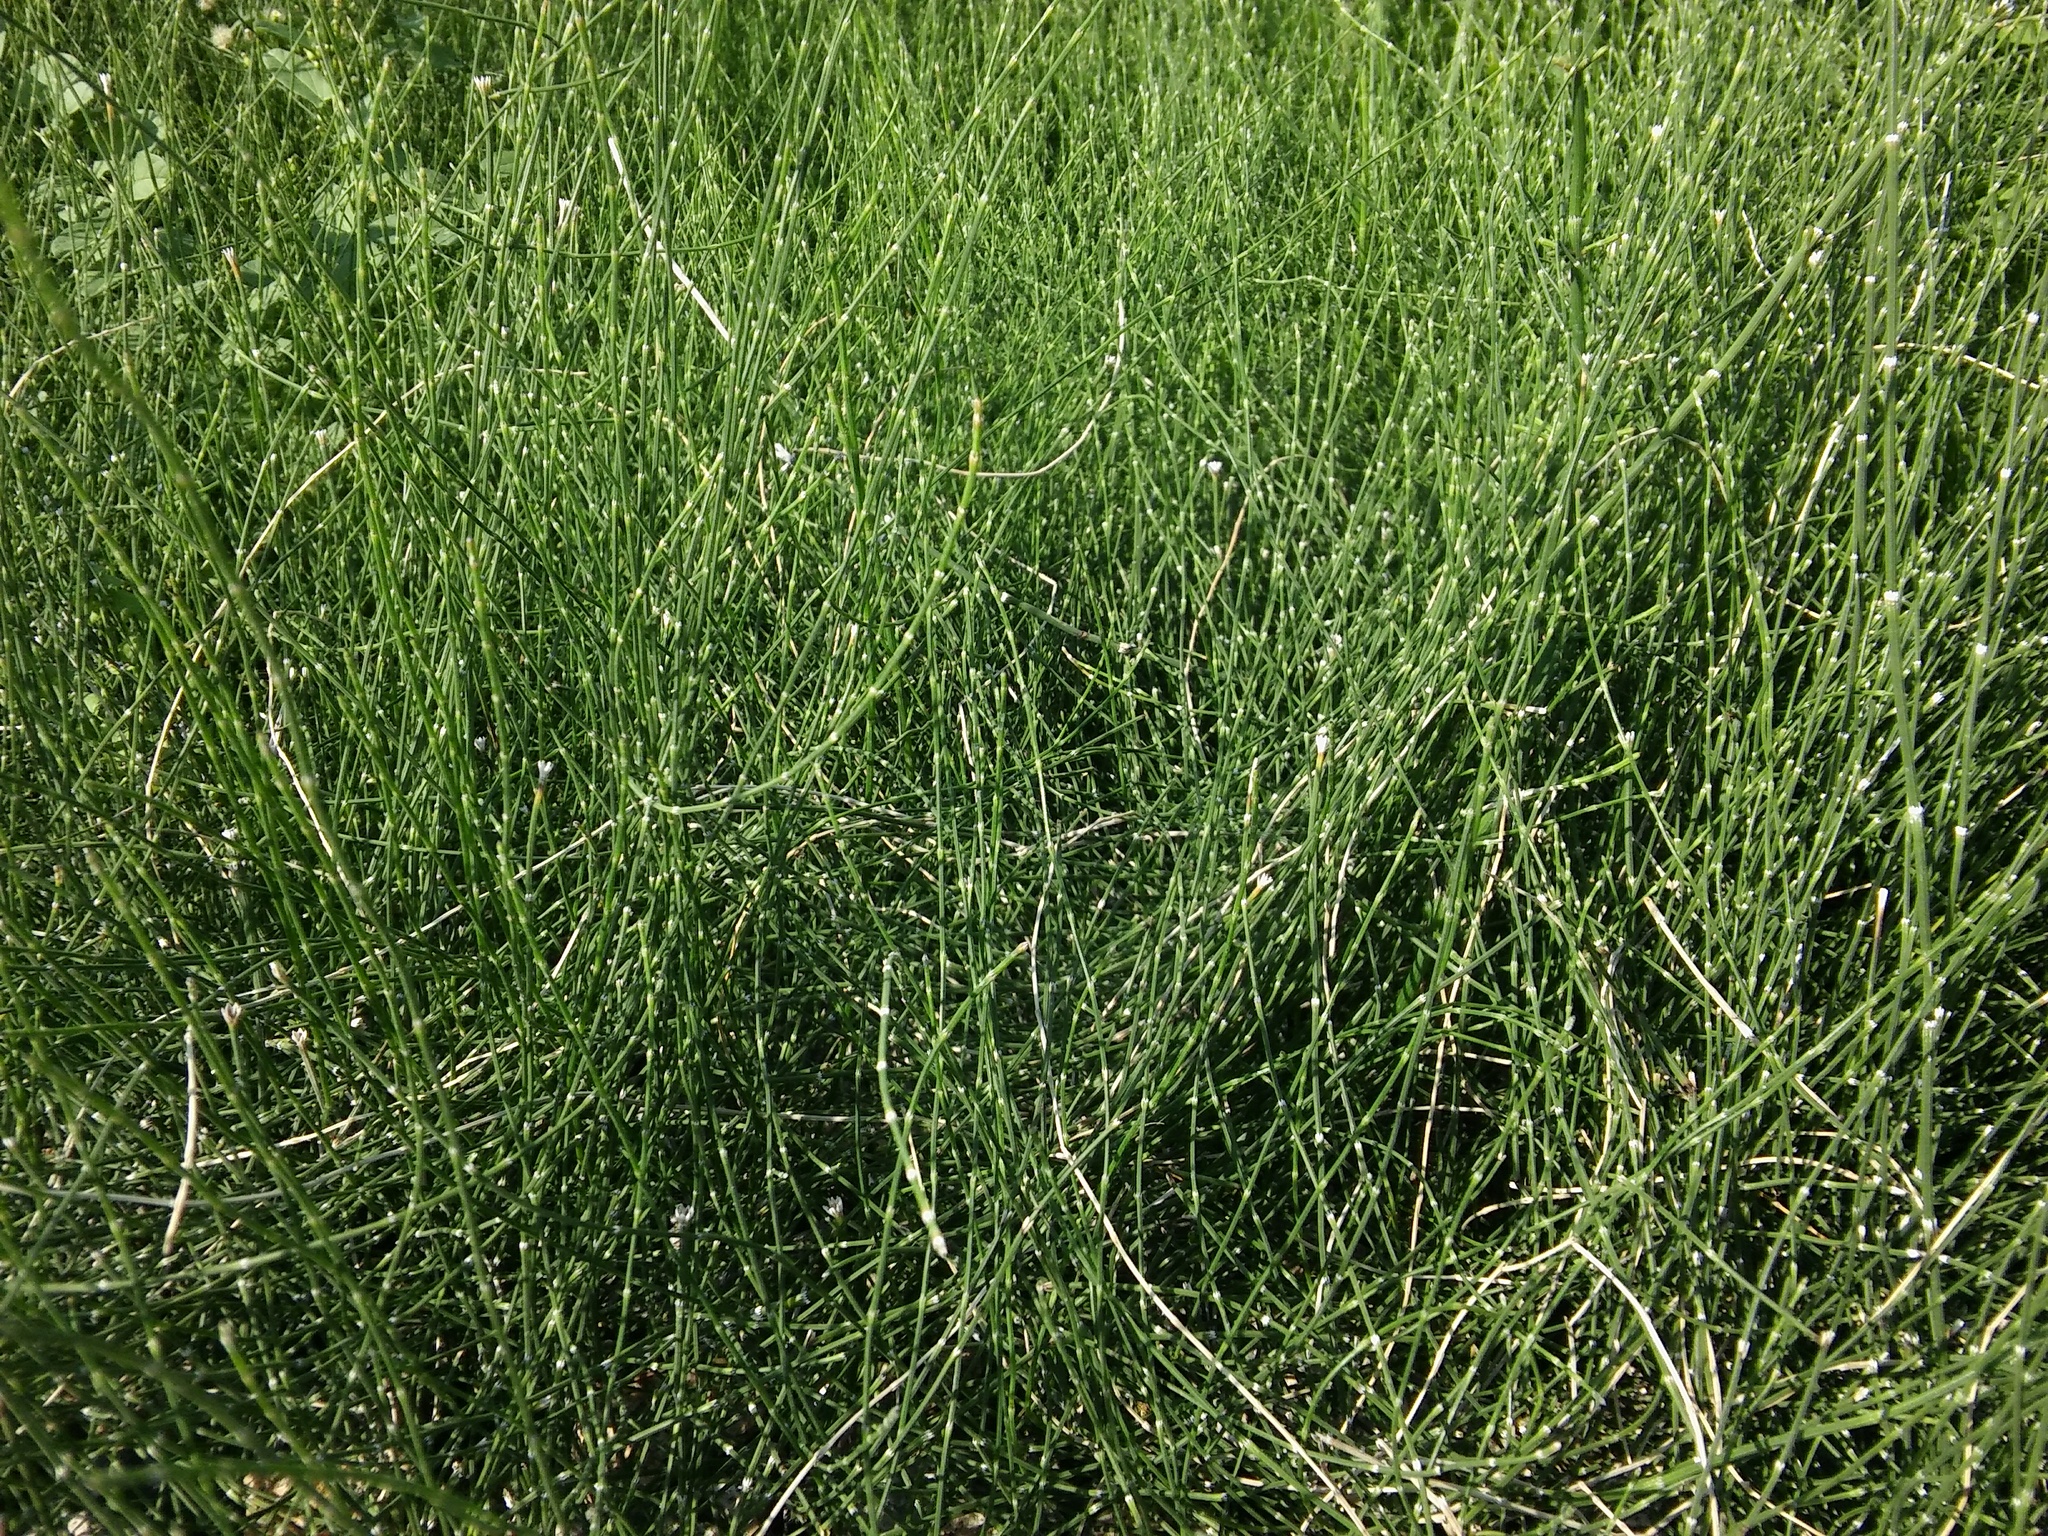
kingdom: Plantae
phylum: Tracheophyta
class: Polypodiopsida
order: Equisetales
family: Equisetaceae
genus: Equisetum
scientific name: Equisetum ramosissimum
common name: Branched horsetail
